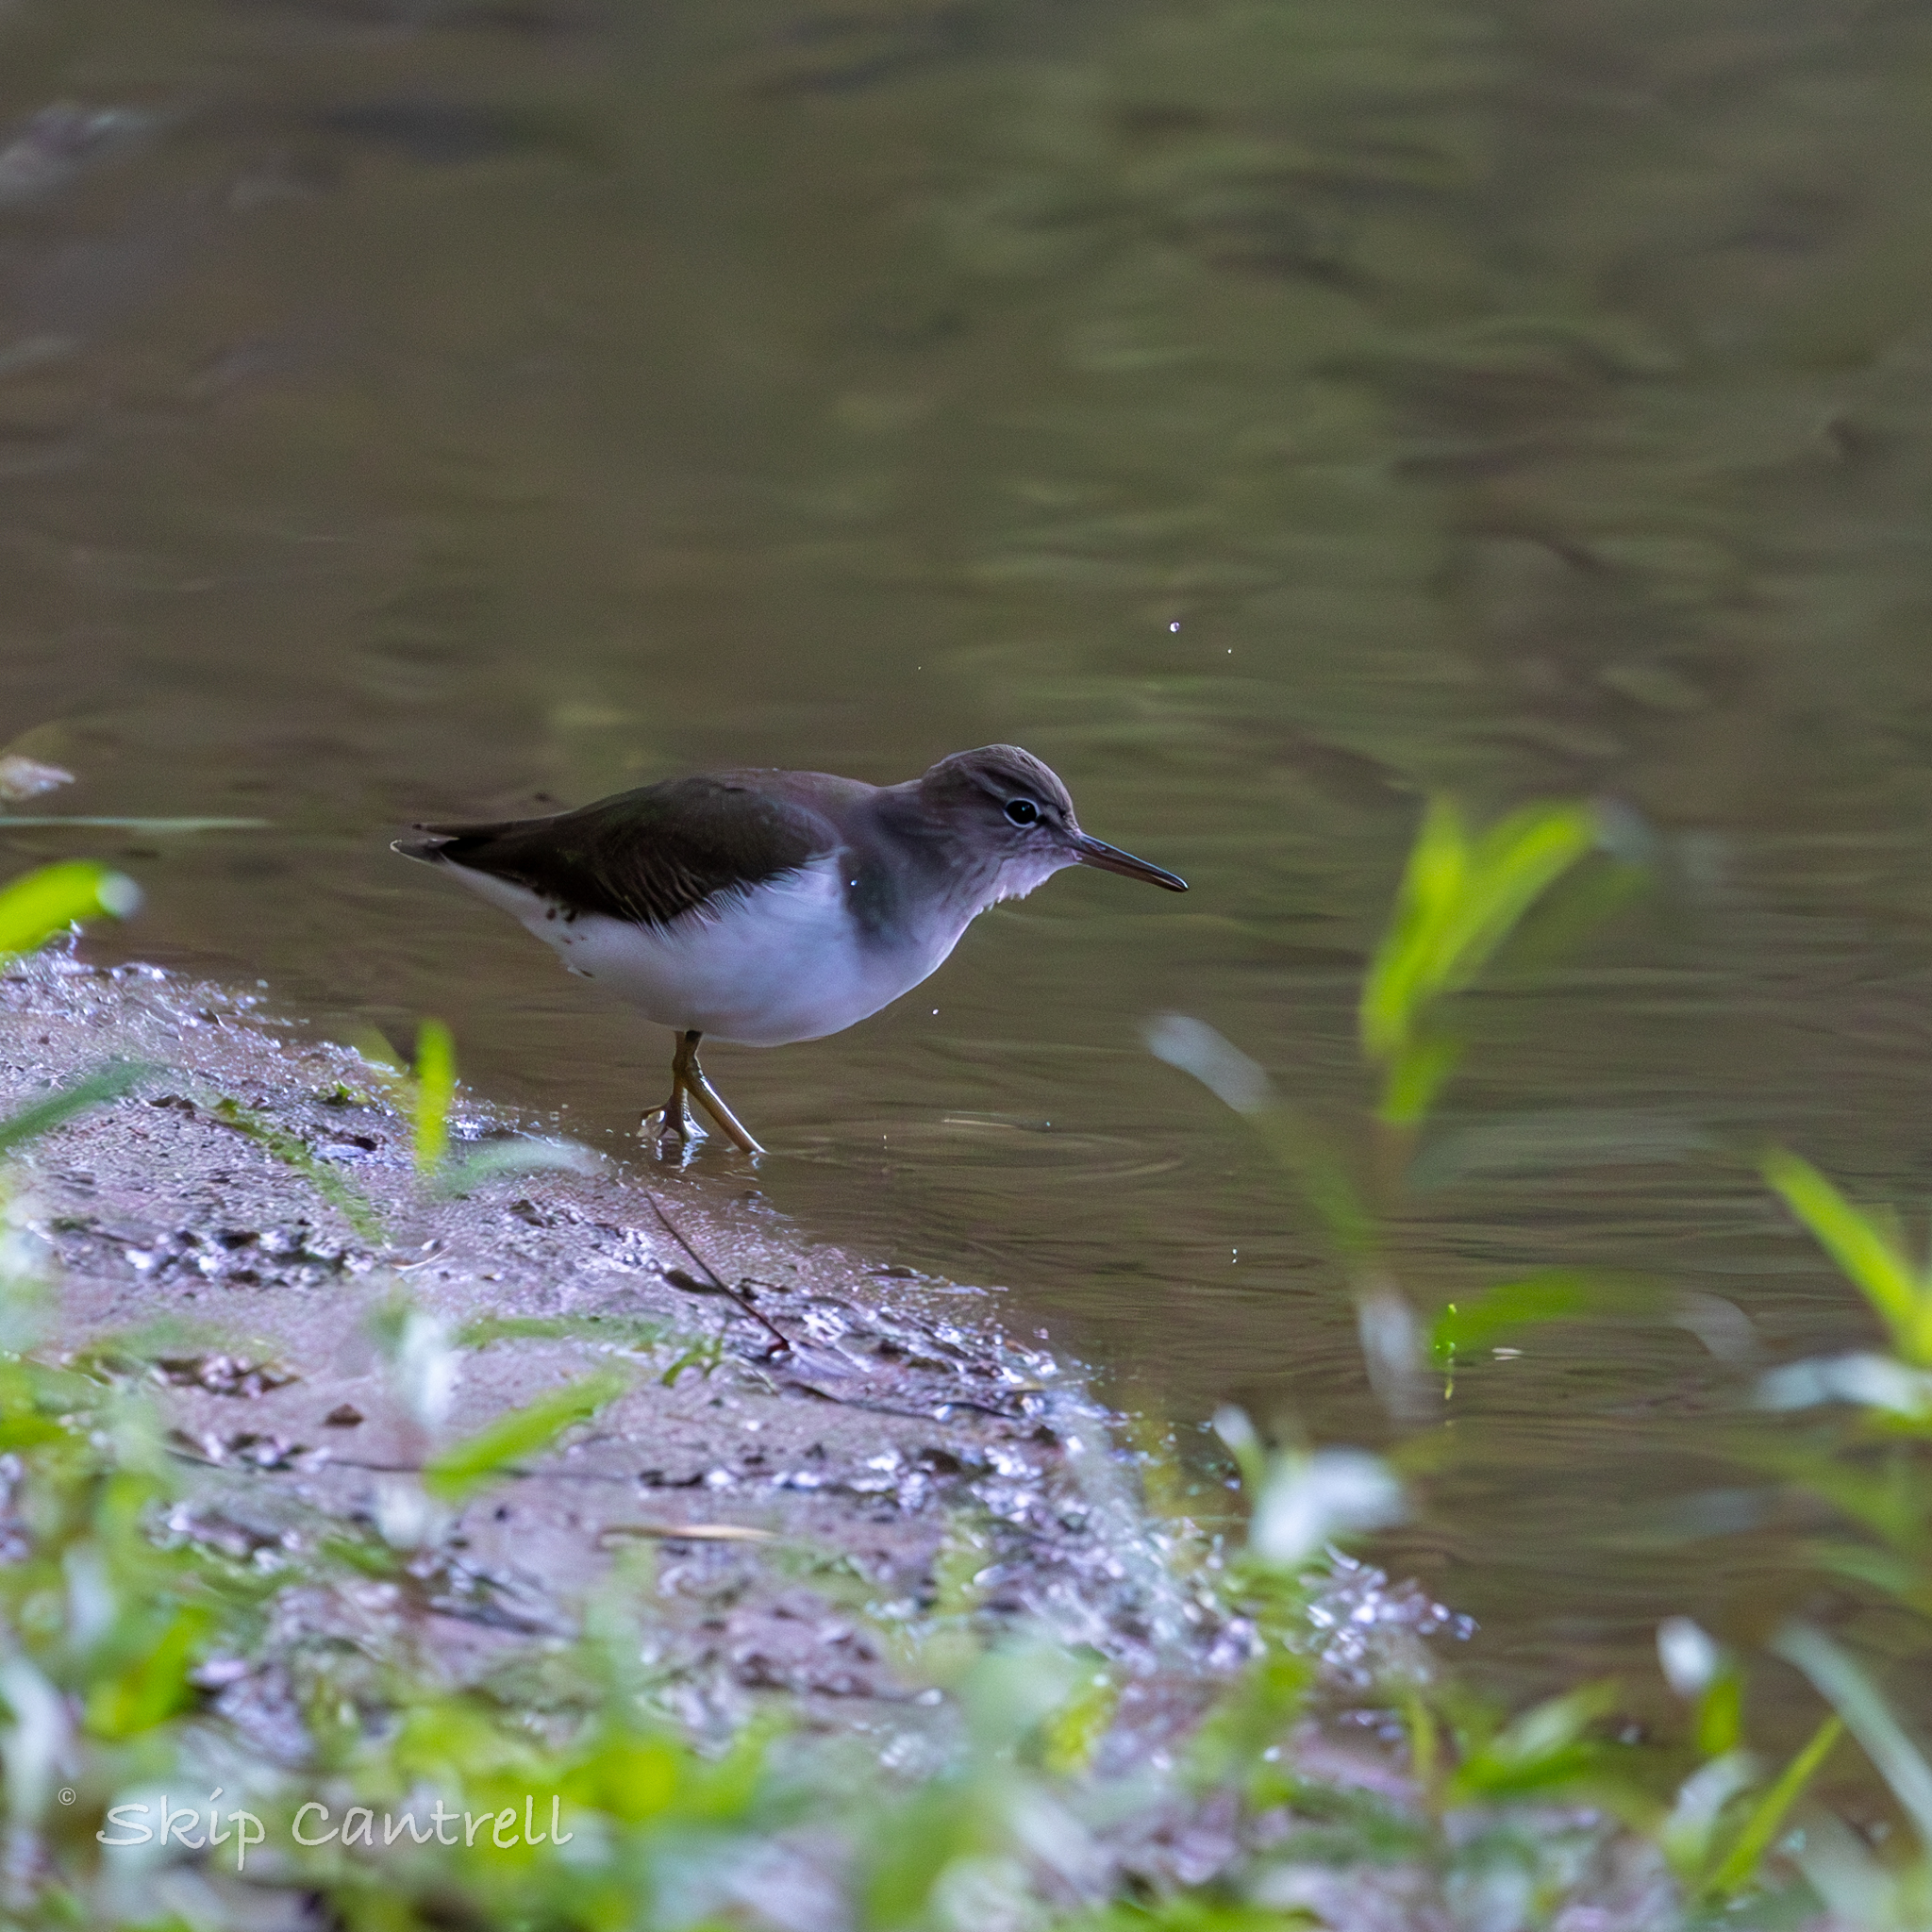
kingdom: Animalia
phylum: Chordata
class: Aves
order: Charadriiformes
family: Scolopacidae
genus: Actitis
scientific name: Actitis macularius
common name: Spotted sandpiper
